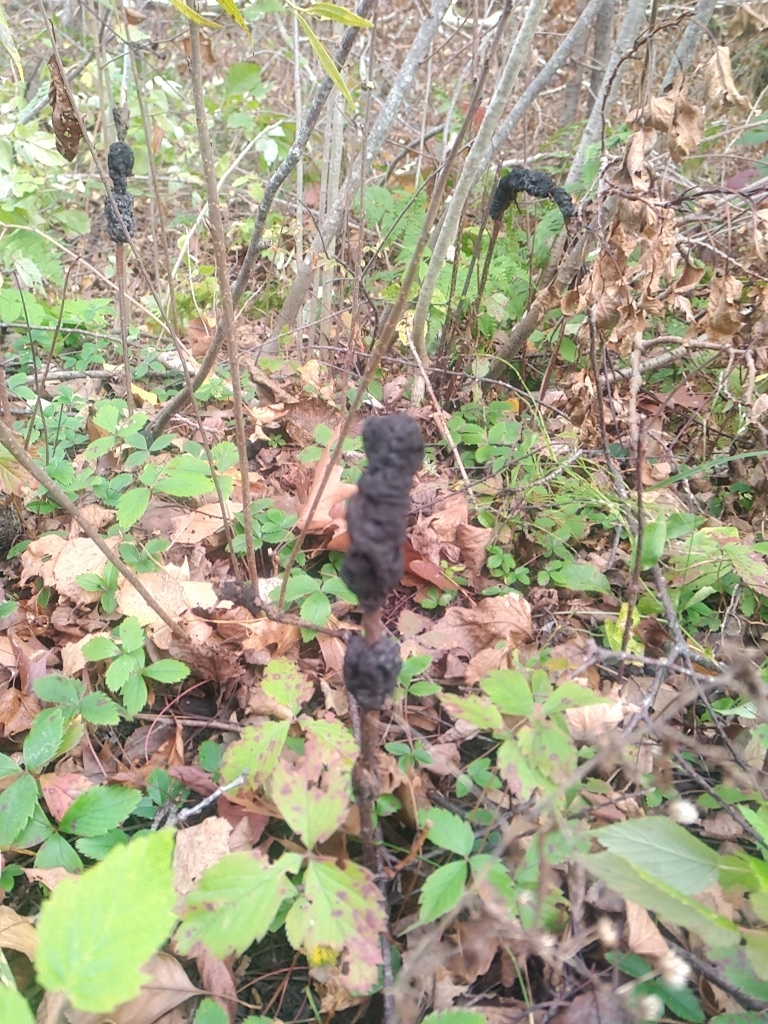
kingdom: Fungi
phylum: Ascomycota
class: Dothideomycetes
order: Venturiales
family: Venturiaceae
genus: Apiosporina
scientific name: Apiosporina morbosa
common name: Black knot
